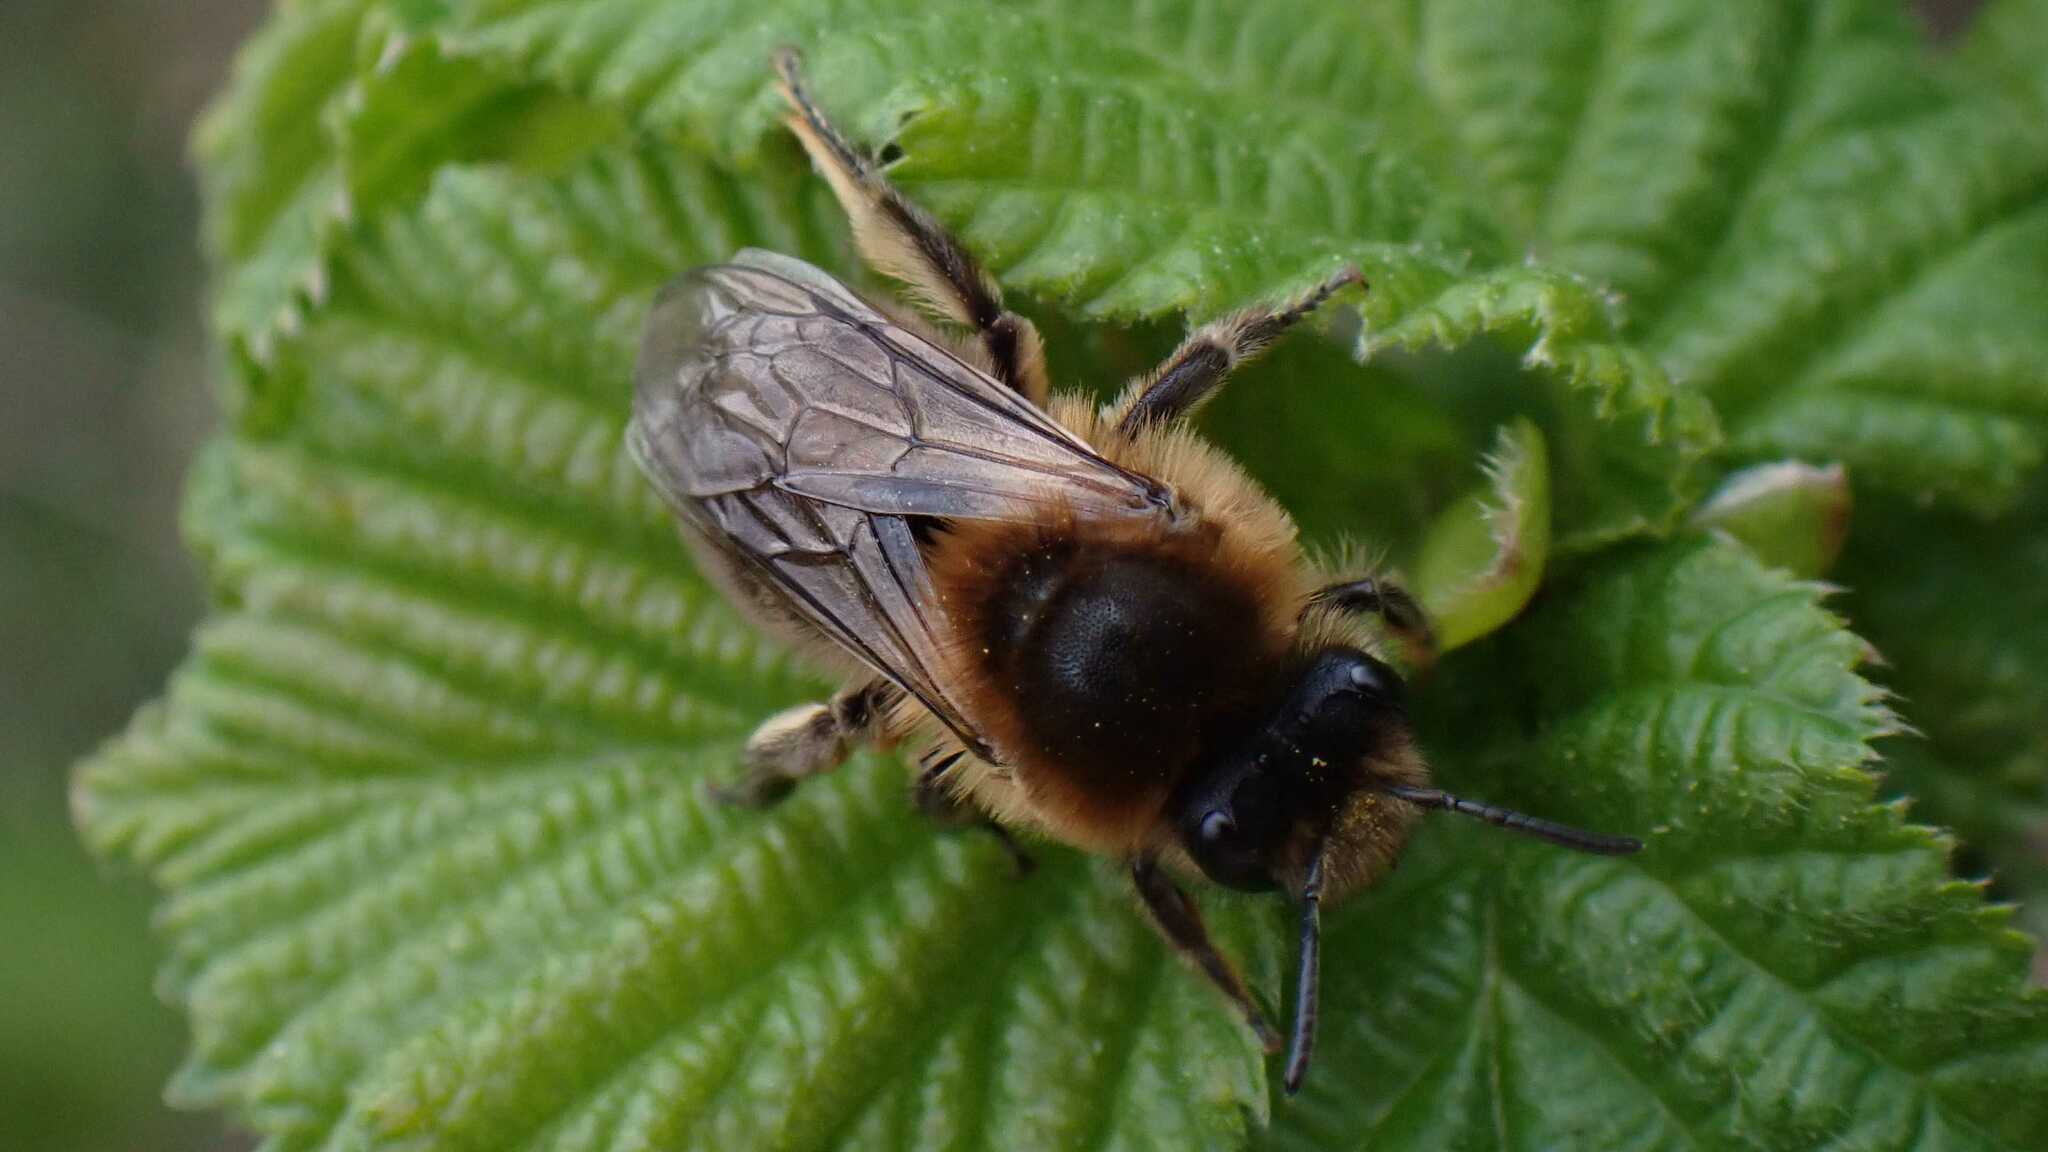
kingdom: Animalia
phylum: Arthropoda
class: Insecta
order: Hymenoptera
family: Colletidae
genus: Colletes
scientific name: Colletes cunicularius
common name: Early colletes
